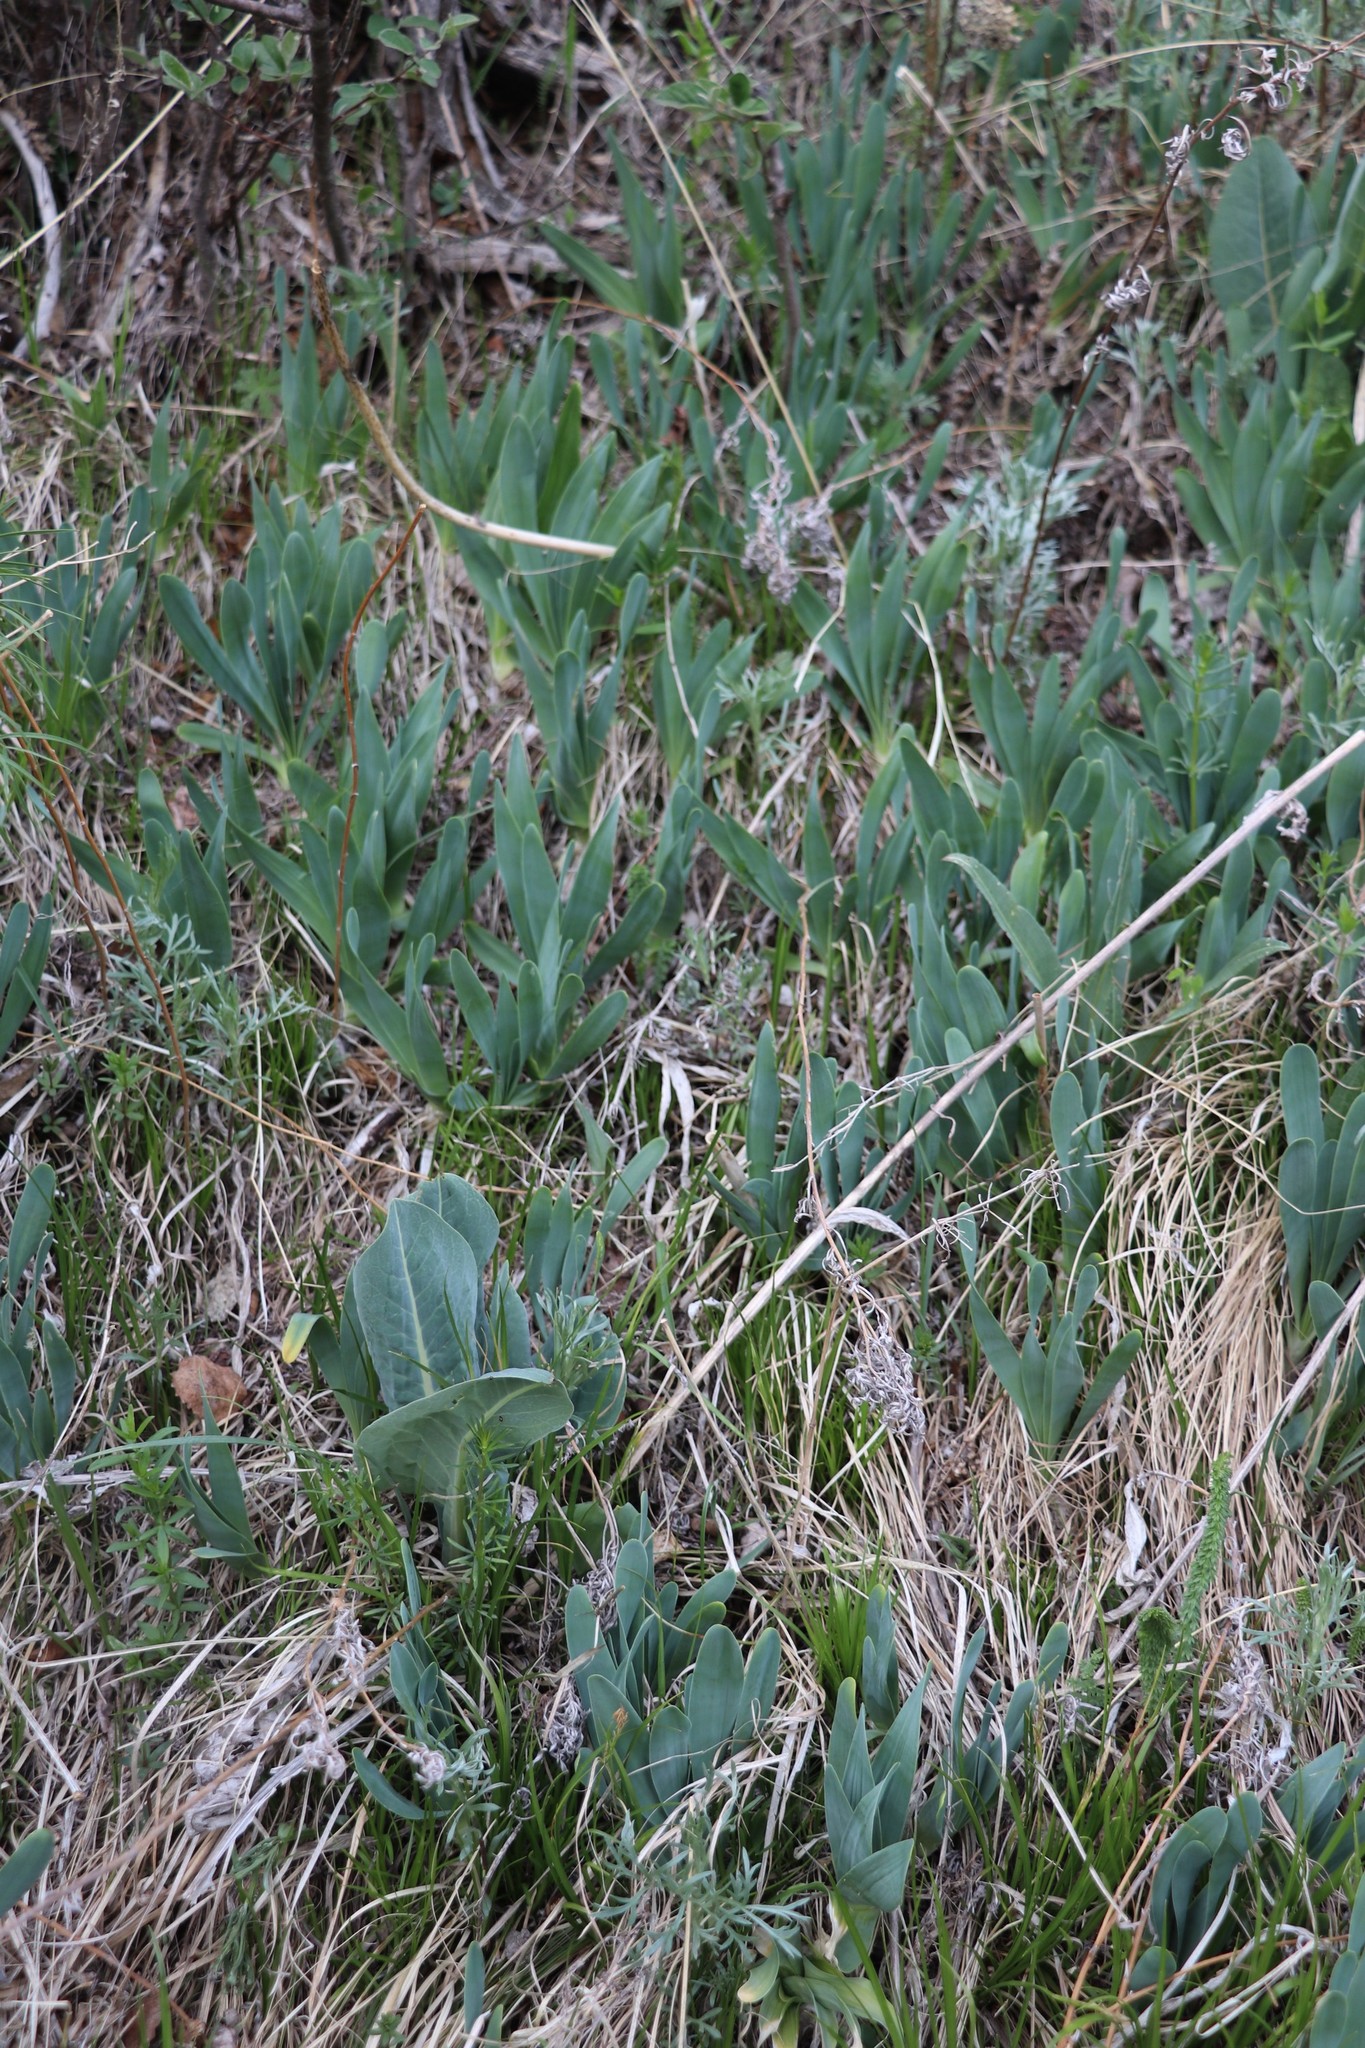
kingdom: Plantae
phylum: Tracheophyta
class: Liliopsida
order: Asparagales
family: Amaryllidaceae
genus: Allium
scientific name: Allium nutans
